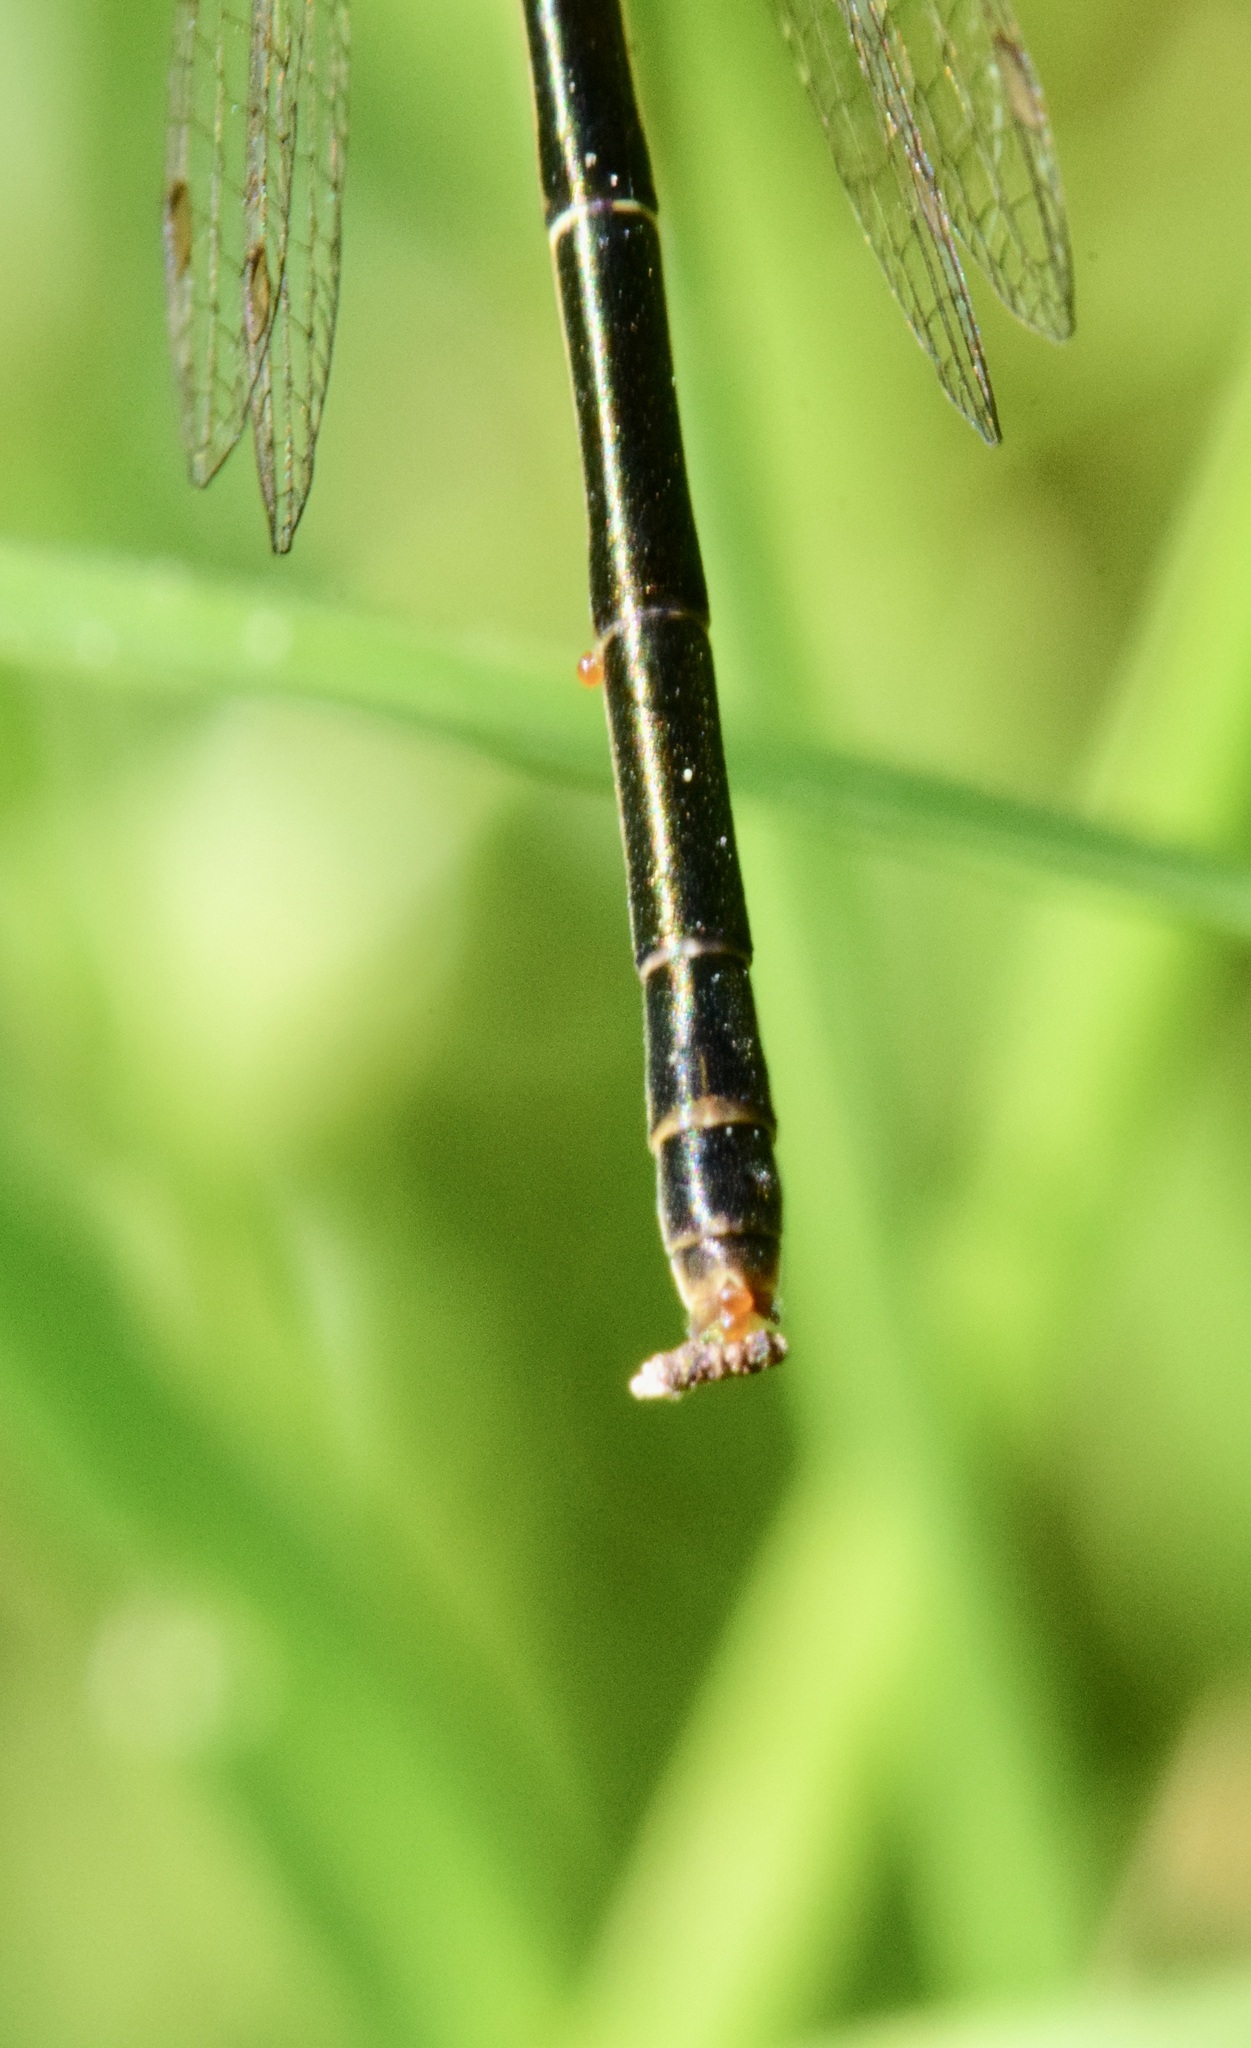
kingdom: Animalia
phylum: Arthropoda
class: Insecta
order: Odonata
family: Coenagrionidae
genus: Ischnura
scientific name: Ischnura verticalis
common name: Eastern forktail
